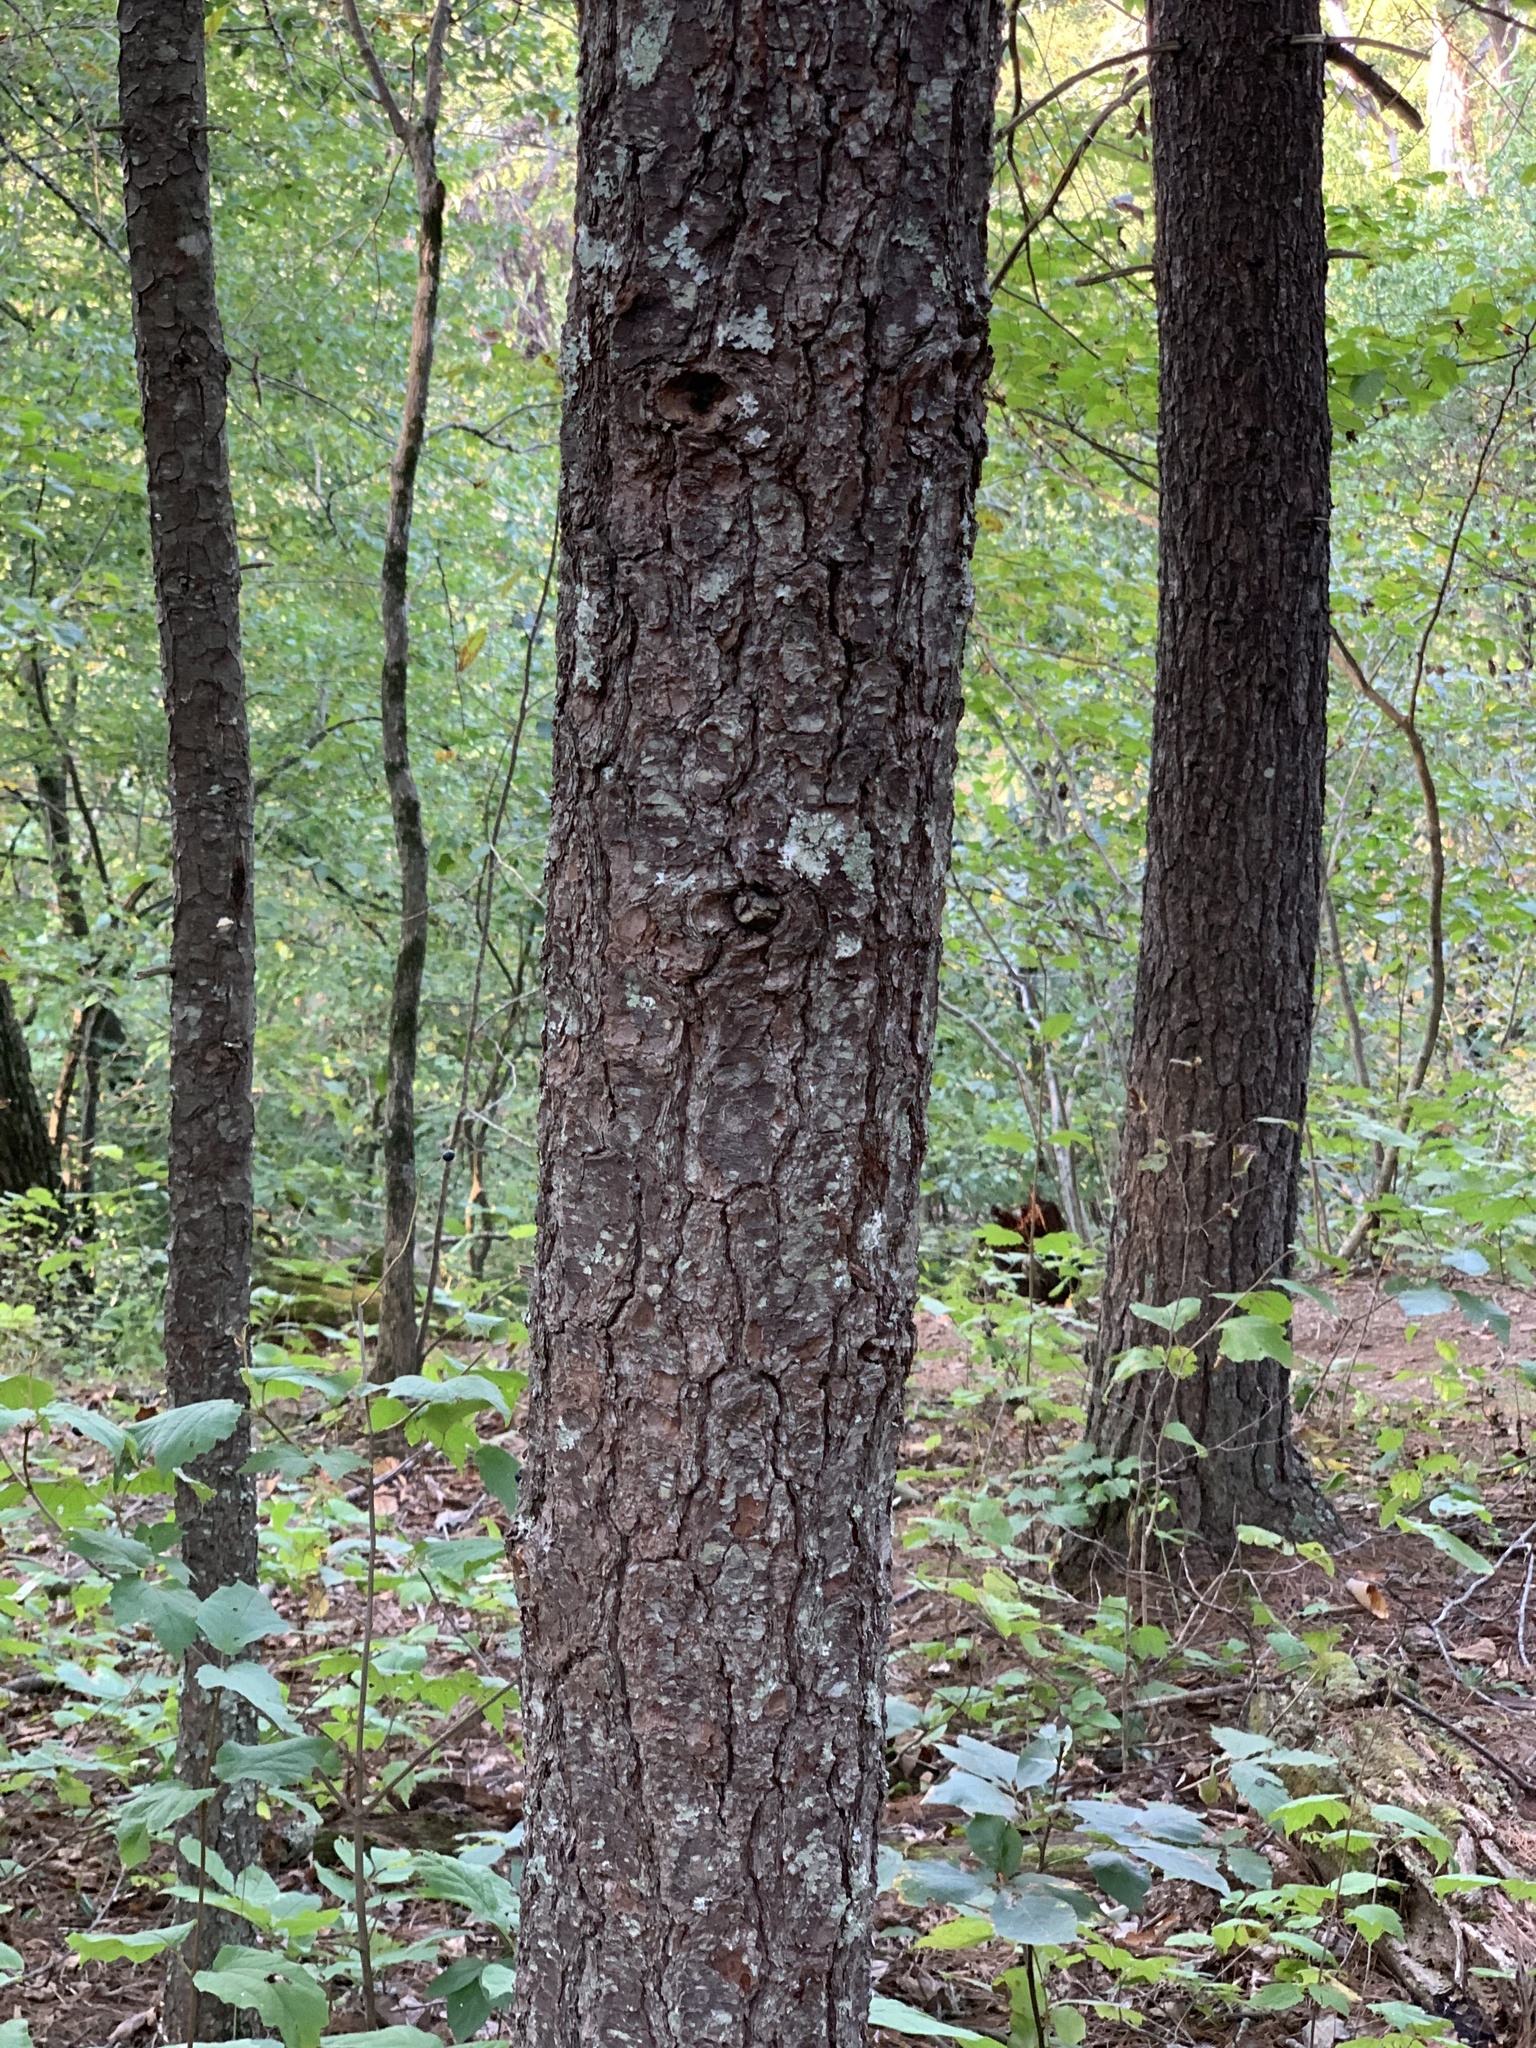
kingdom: Plantae
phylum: Tracheophyta
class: Pinopsida
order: Pinales
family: Pinaceae
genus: Pinus
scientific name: Pinus strobus
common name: Weymouth pine
